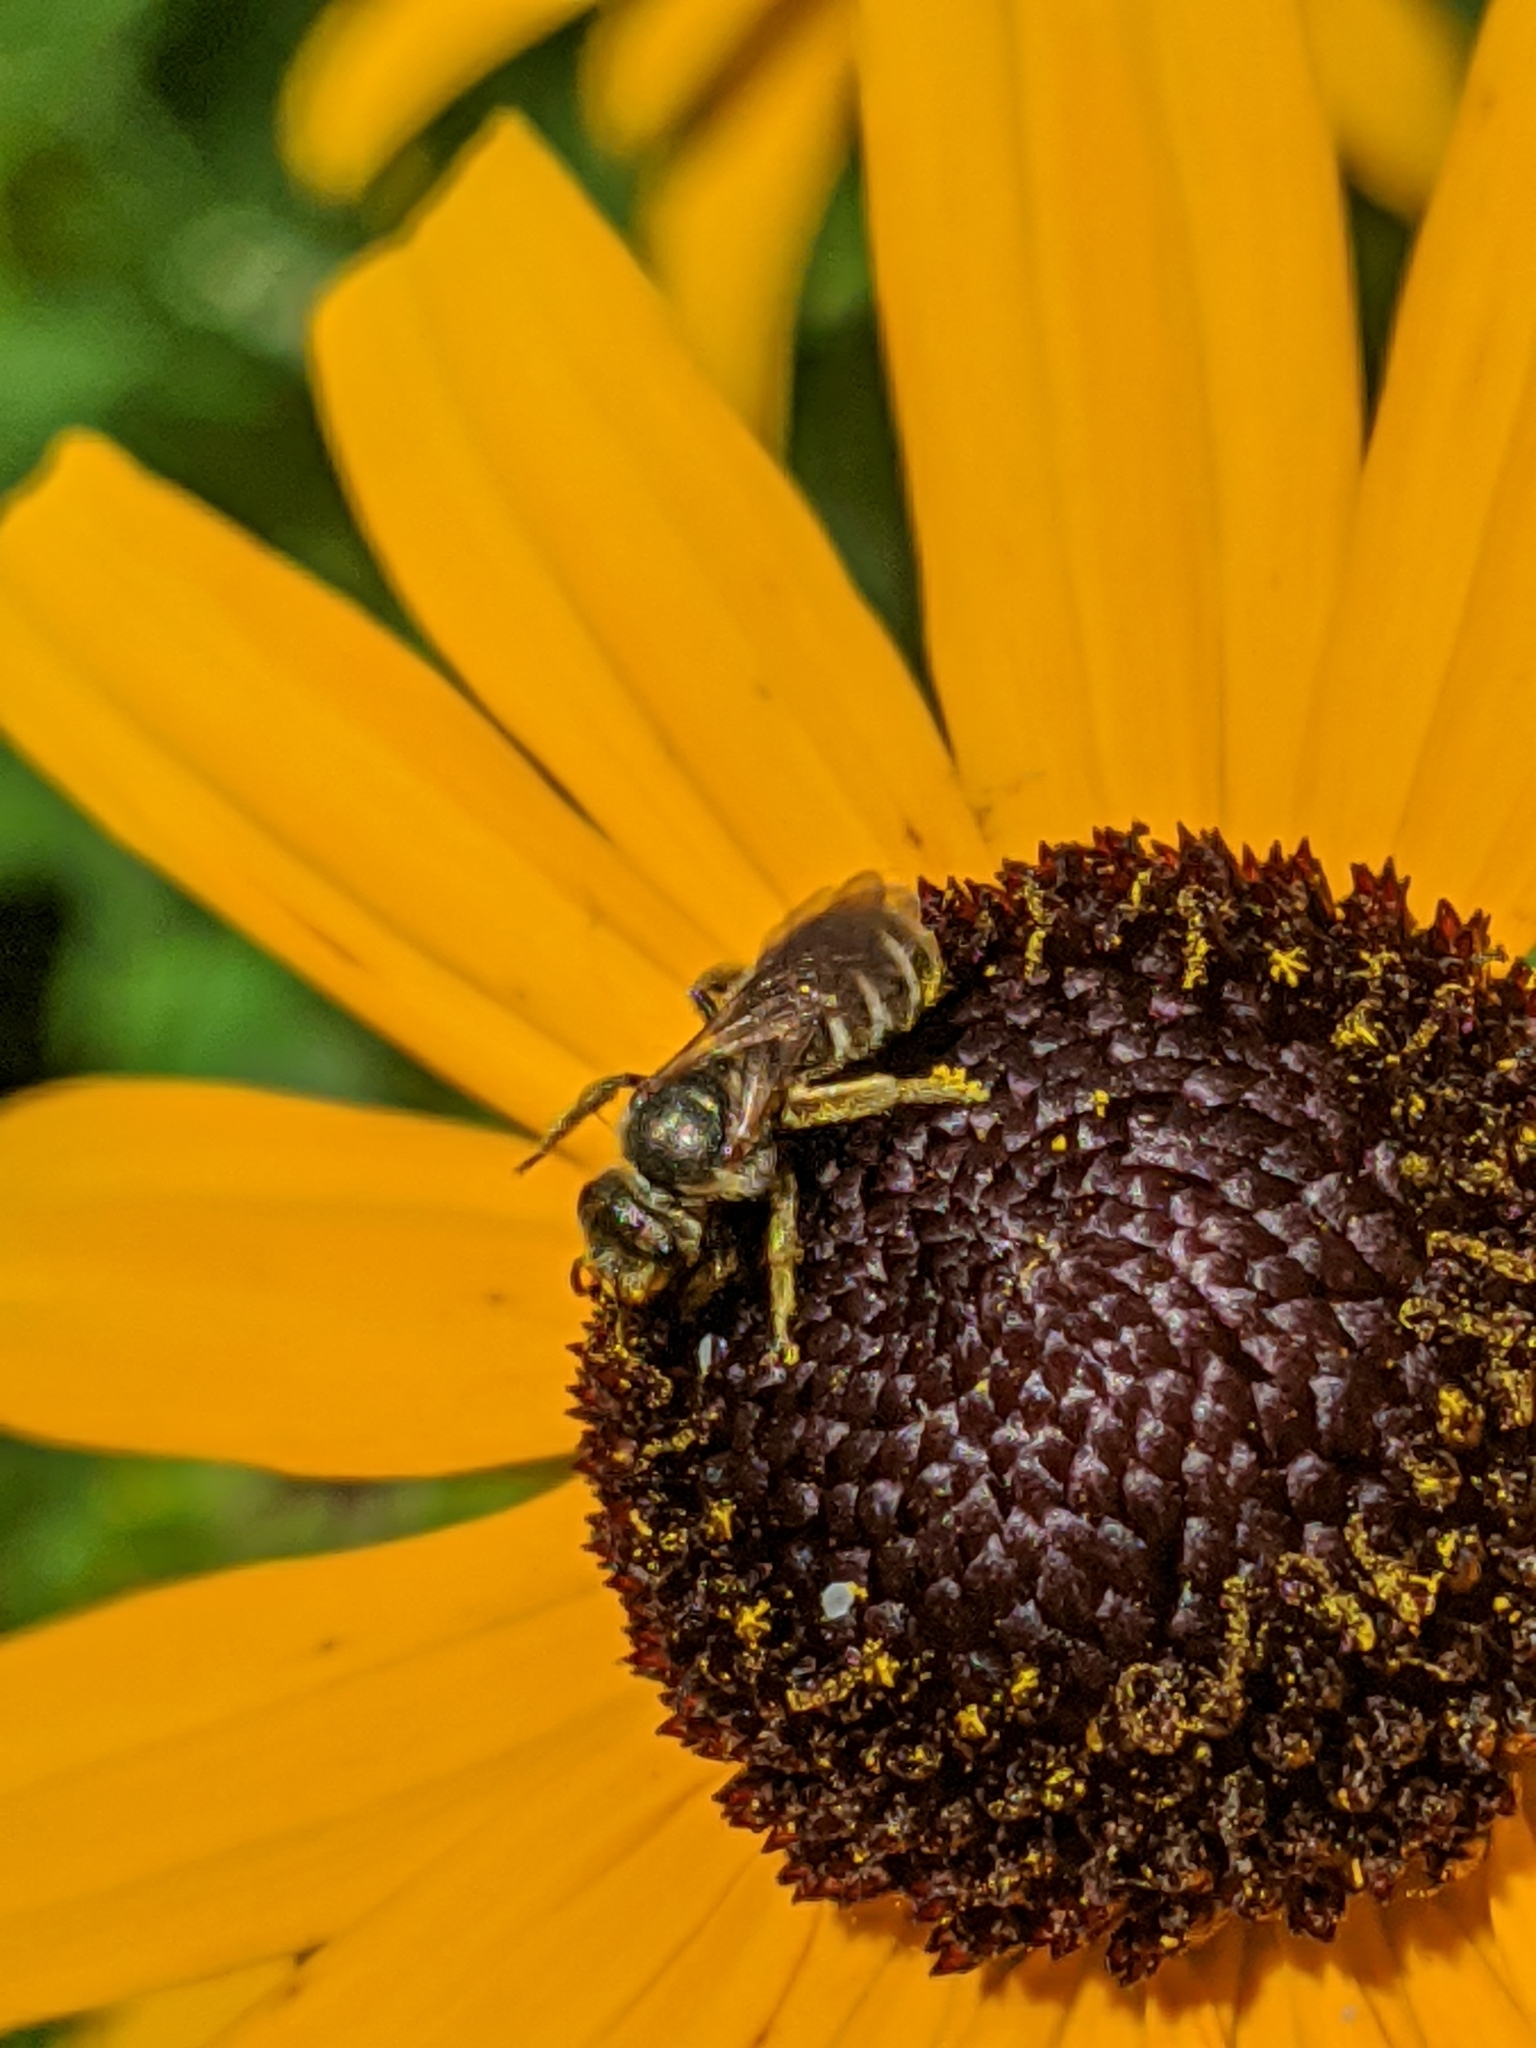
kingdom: Animalia
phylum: Arthropoda
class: Insecta
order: Hymenoptera
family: Halictidae
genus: Halictus
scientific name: Halictus confusus
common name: Southern bronze furrow bee
